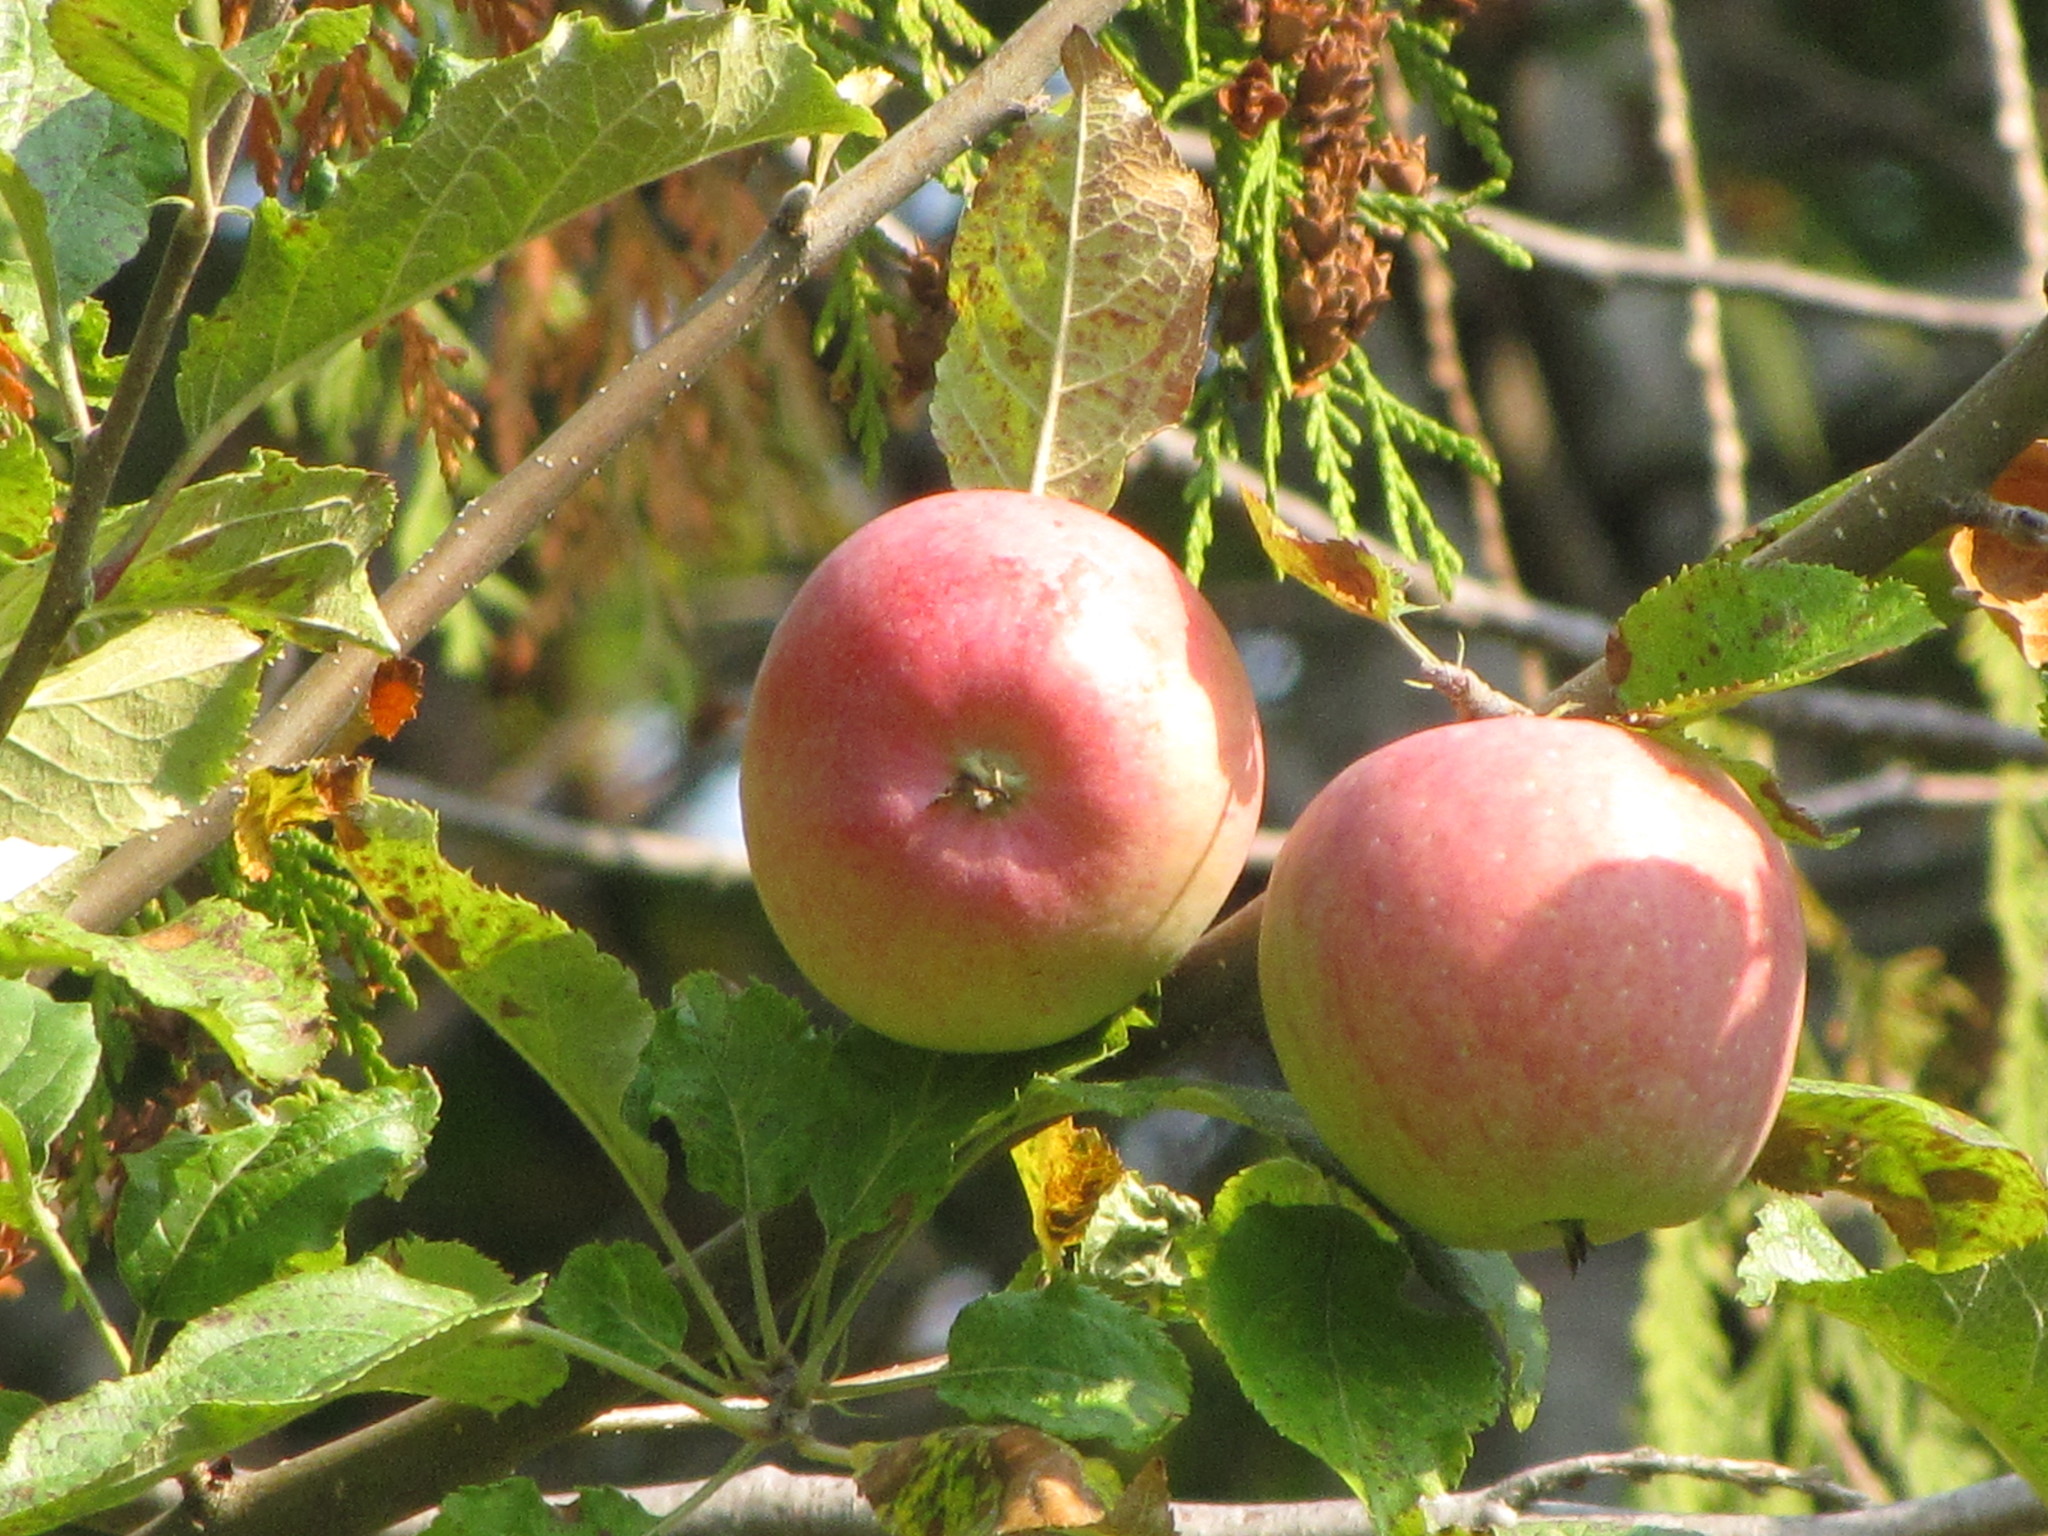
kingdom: Plantae
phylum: Tracheophyta
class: Magnoliopsida
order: Rosales
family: Rosaceae
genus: Malus
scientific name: Malus domestica
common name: Apple
